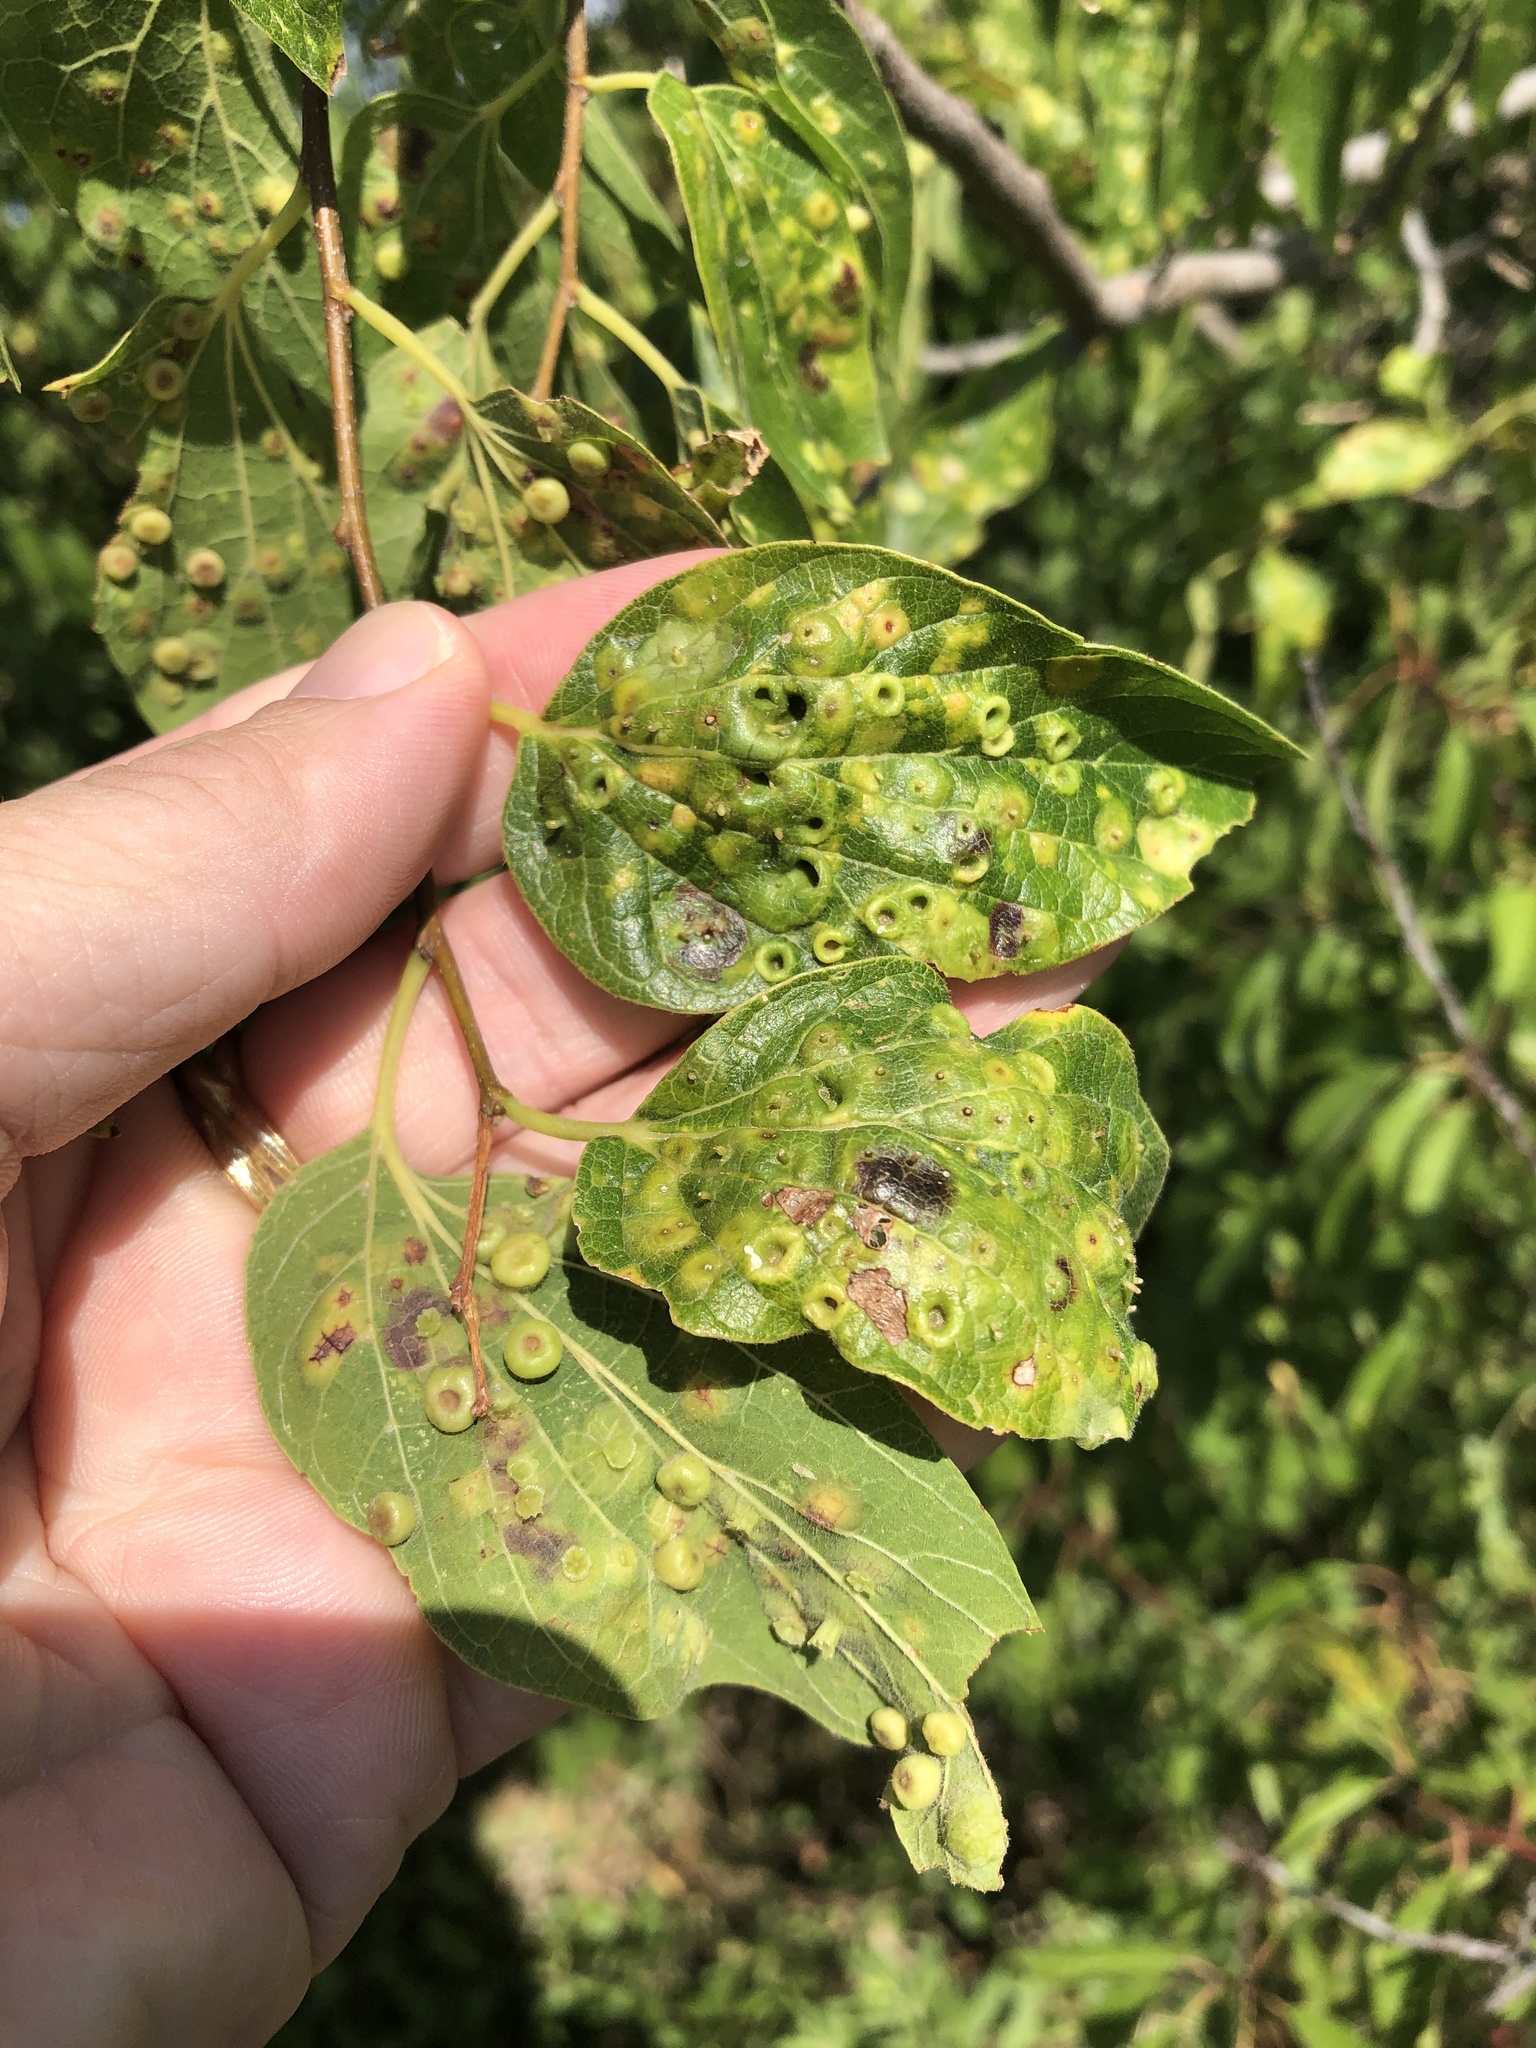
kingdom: Animalia
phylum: Arthropoda
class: Insecta
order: Hemiptera
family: Aphalaridae
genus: Pachypsylla
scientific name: Pachypsylla celtidismamma
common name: Hackberry nipplegall psyllid
